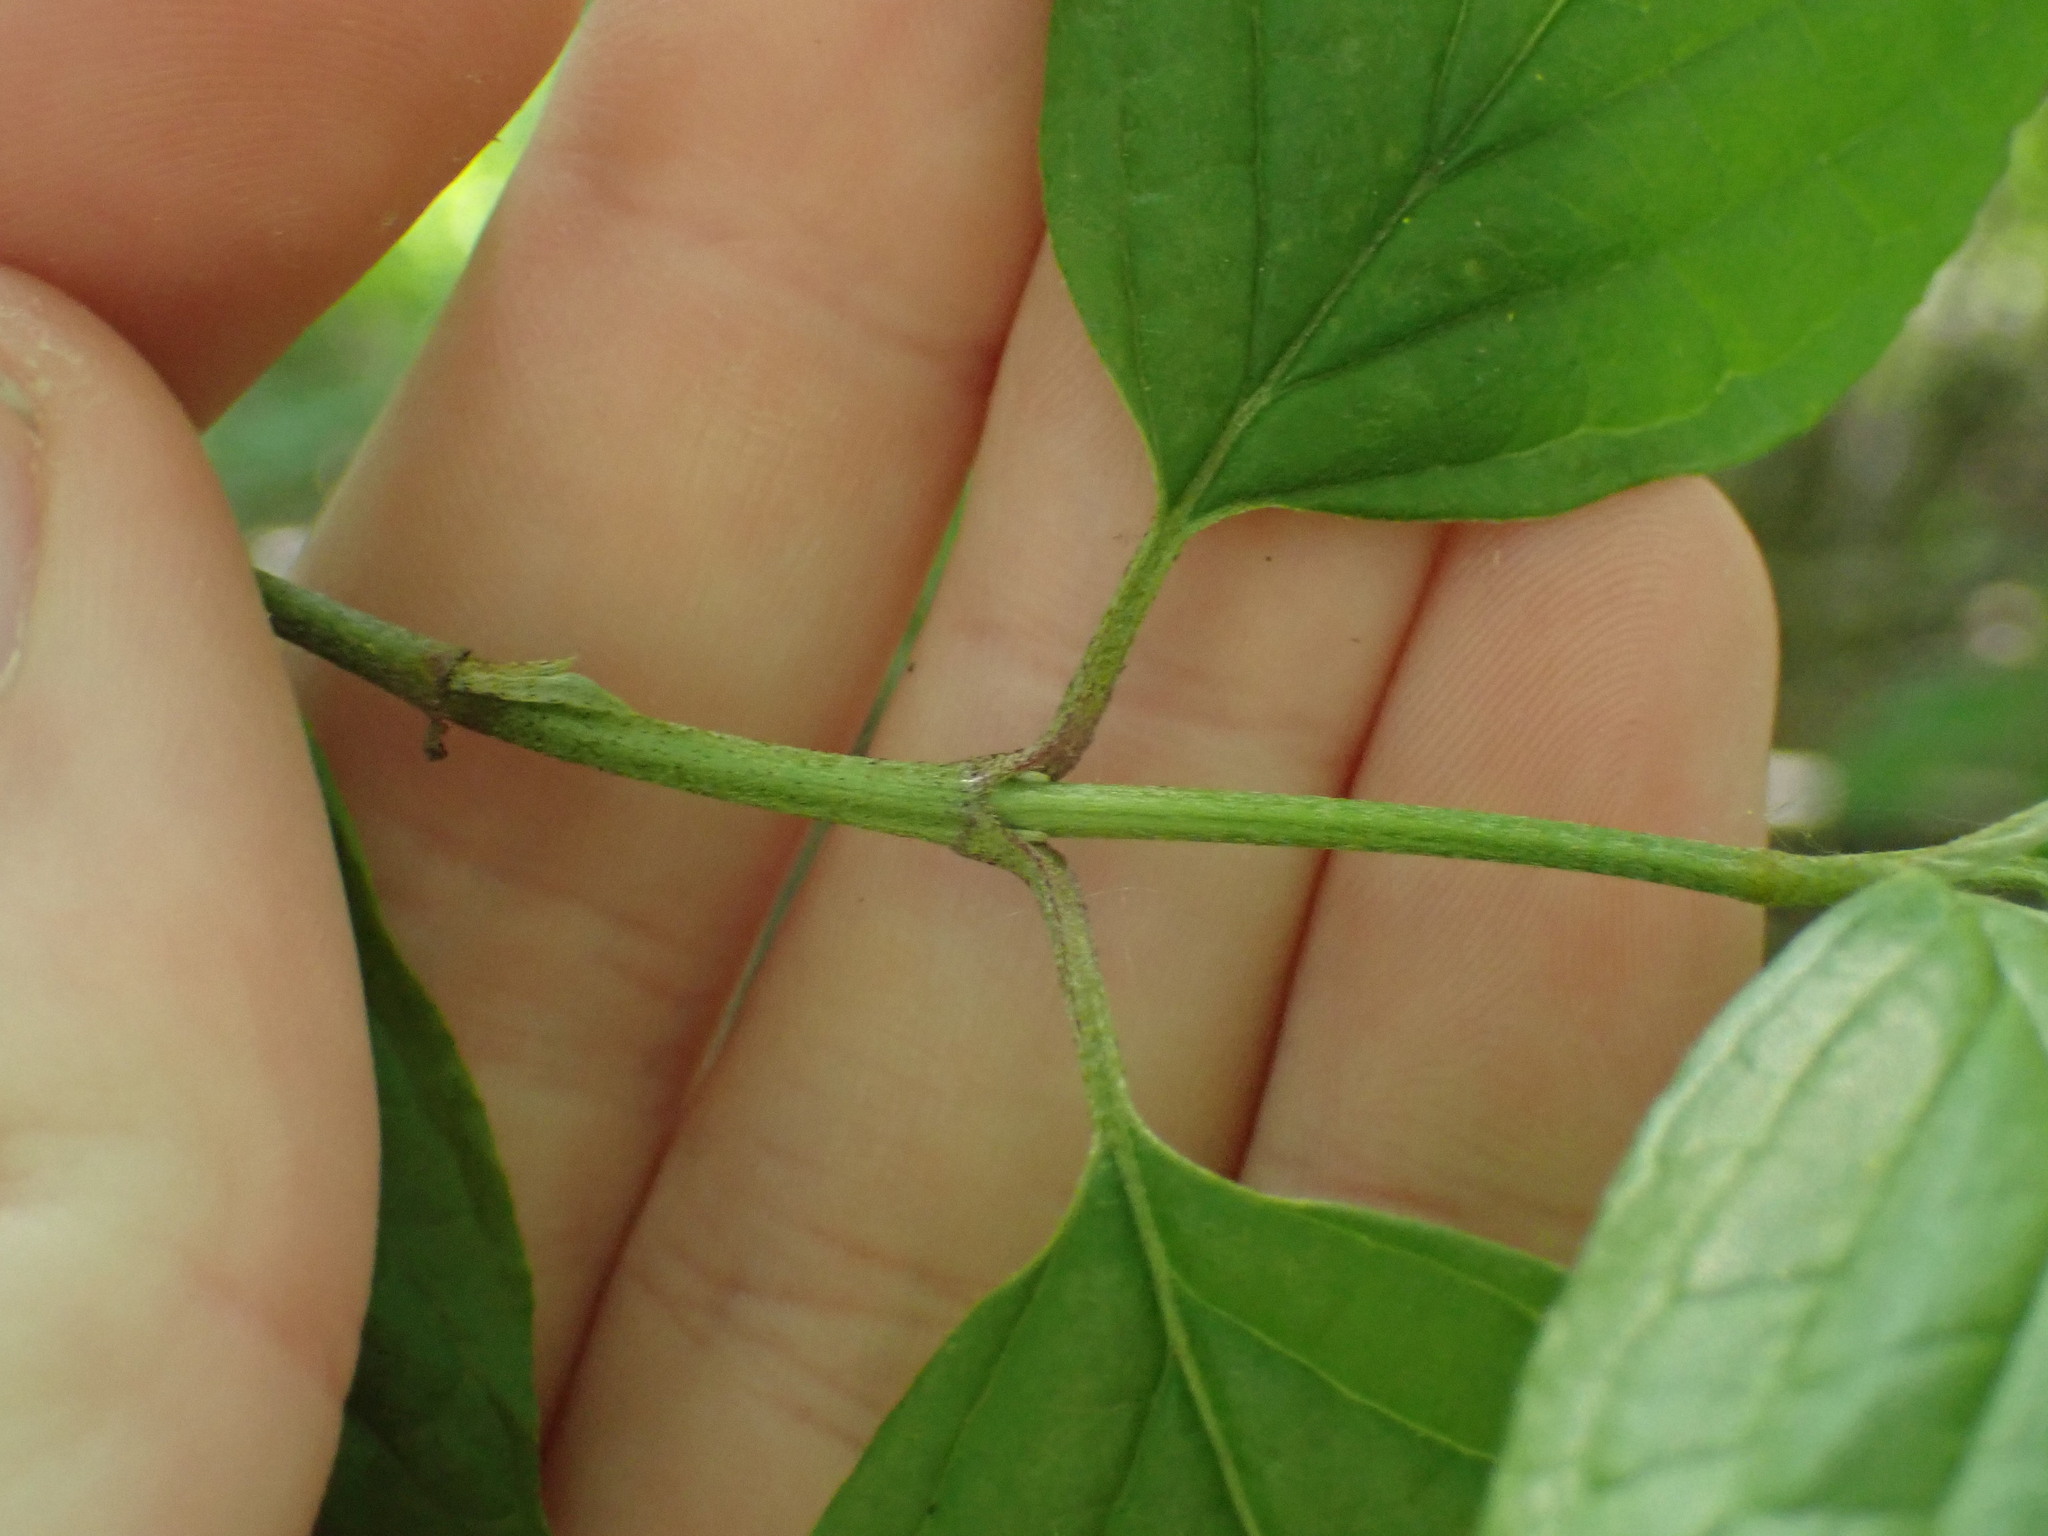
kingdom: Plantae
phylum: Tracheophyta
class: Magnoliopsida
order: Cornales
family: Cornaceae
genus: Cornus
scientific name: Cornus sanguinea
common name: Dogwood
